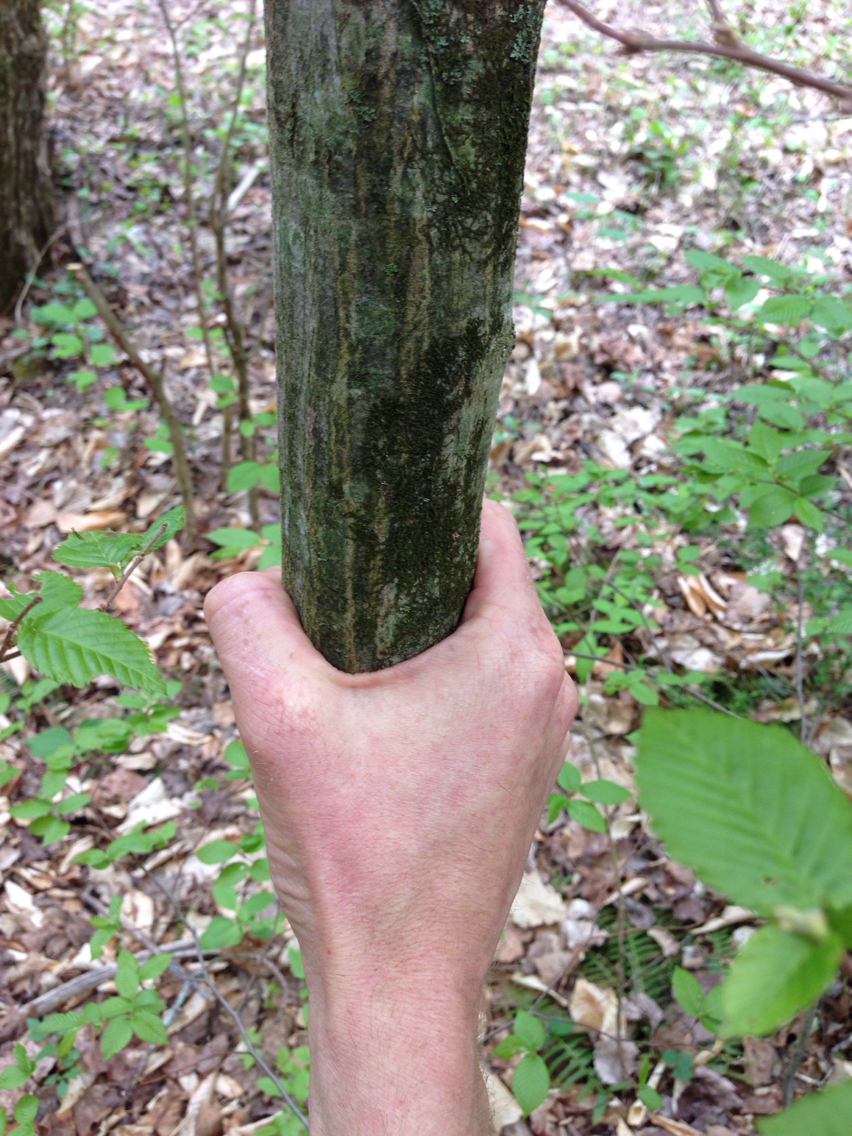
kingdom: Plantae
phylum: Tracheophyta
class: Magnoliopsida
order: Fagales
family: Betulaceae
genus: Carpinus
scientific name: Carpinus caroliniana
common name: American hornbeam
